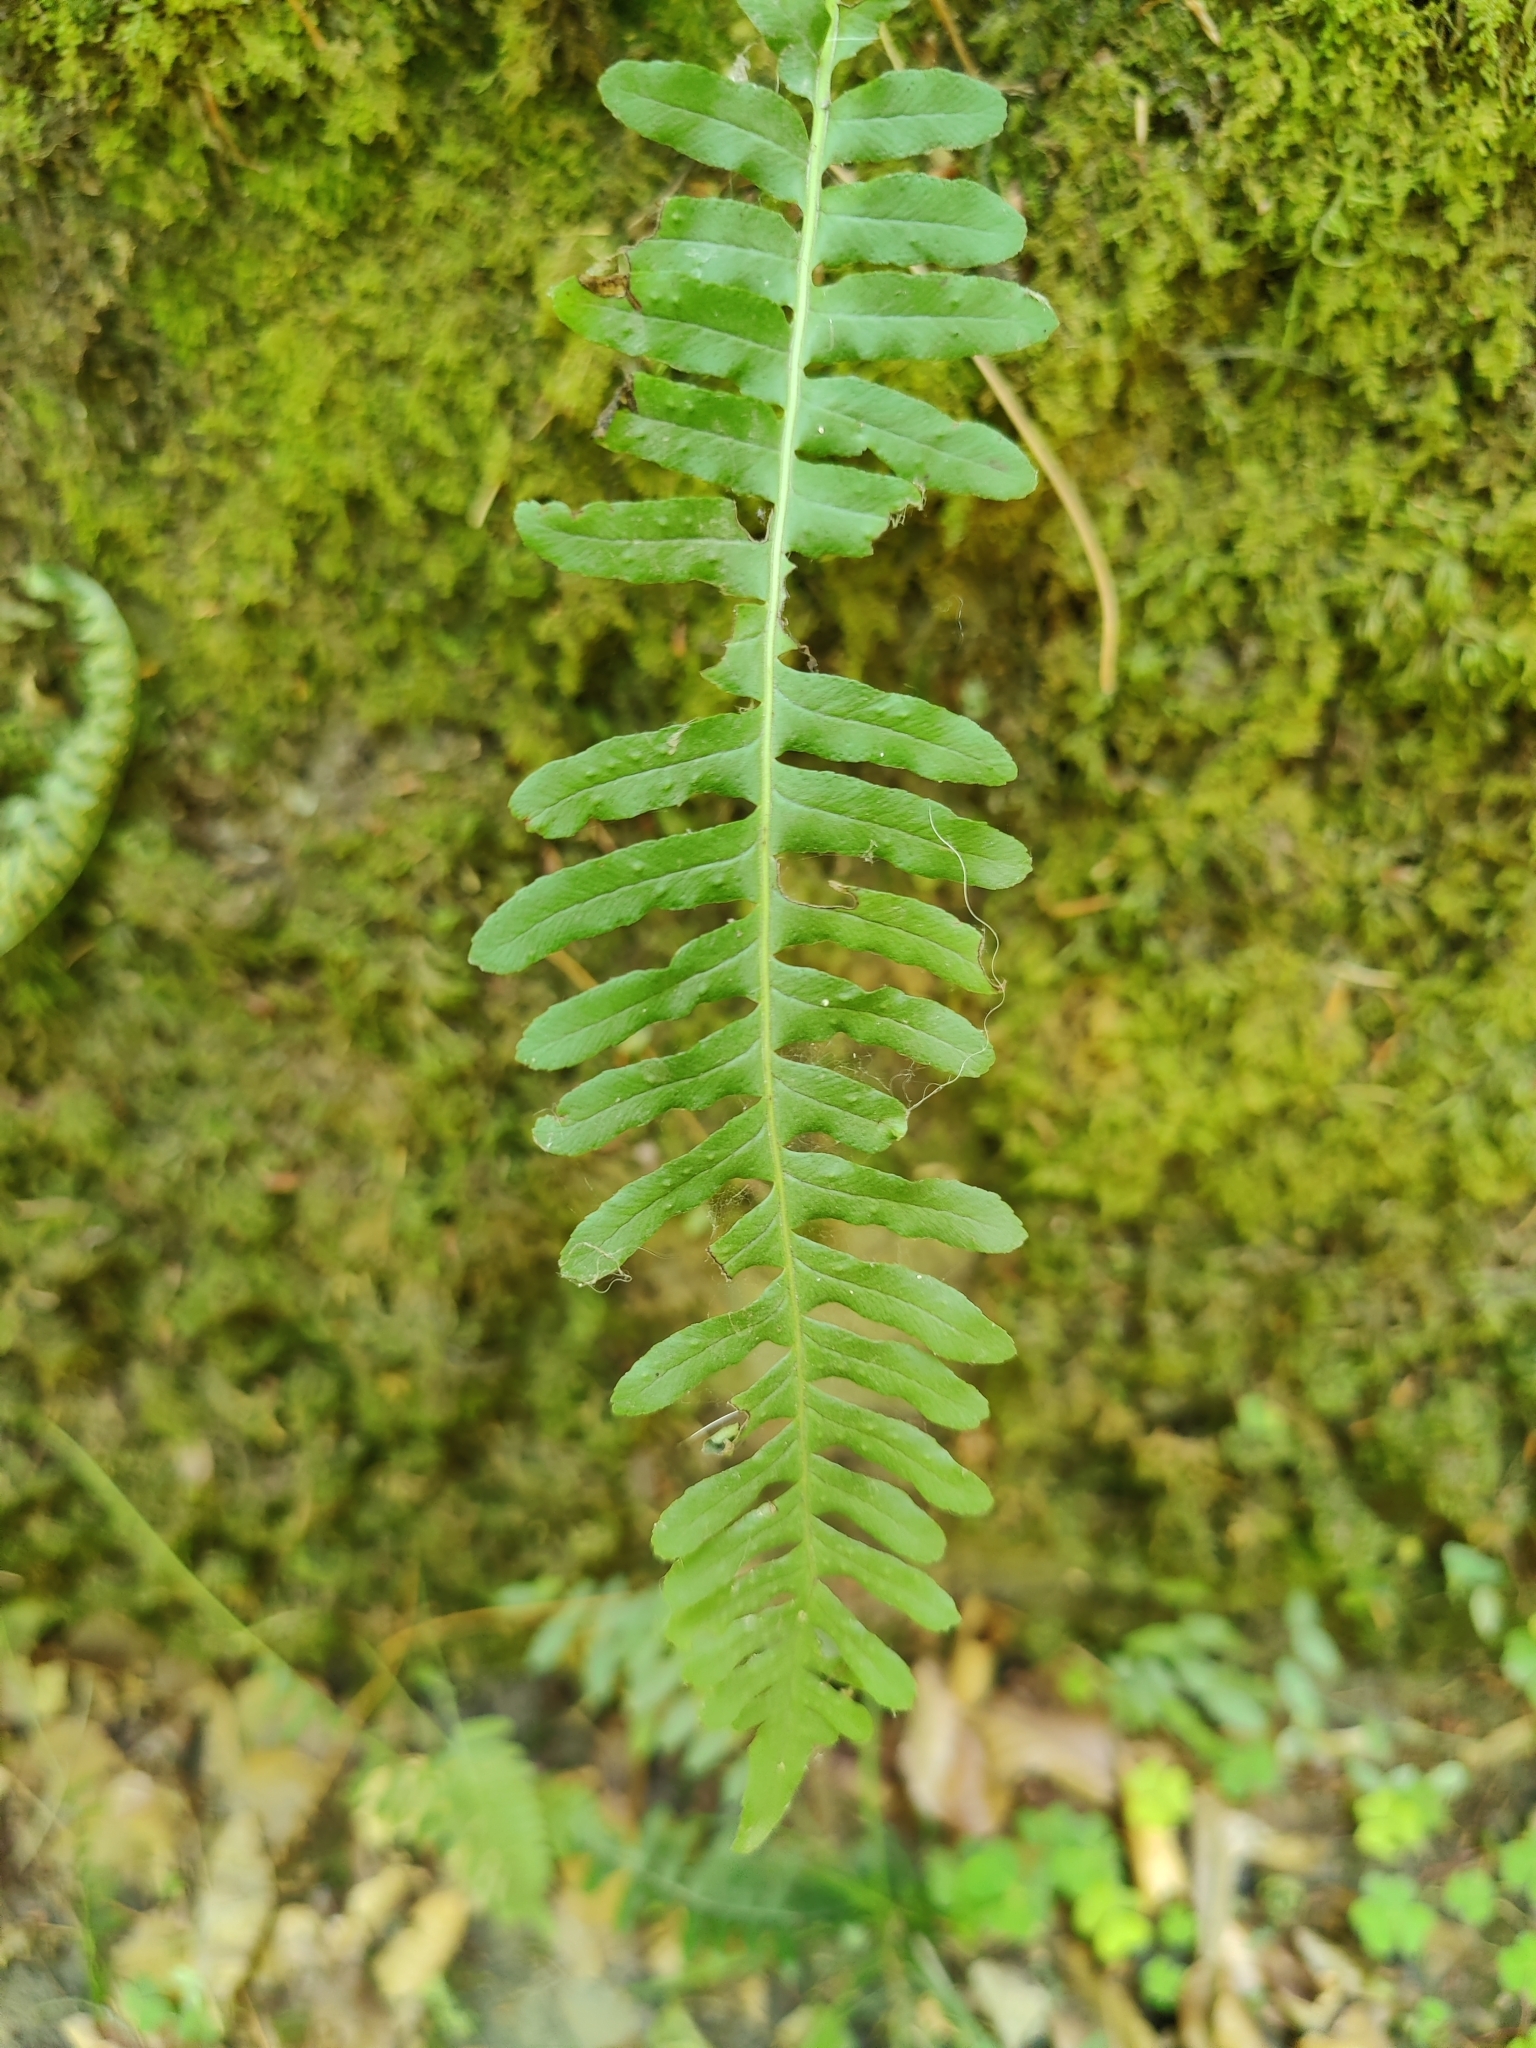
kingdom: Plantae
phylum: Tracheophyta
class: Polypodiopsida
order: Polypodiales
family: Polypodiaceae
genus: Polypodium
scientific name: Polypodium vulgare
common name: Common polypody
